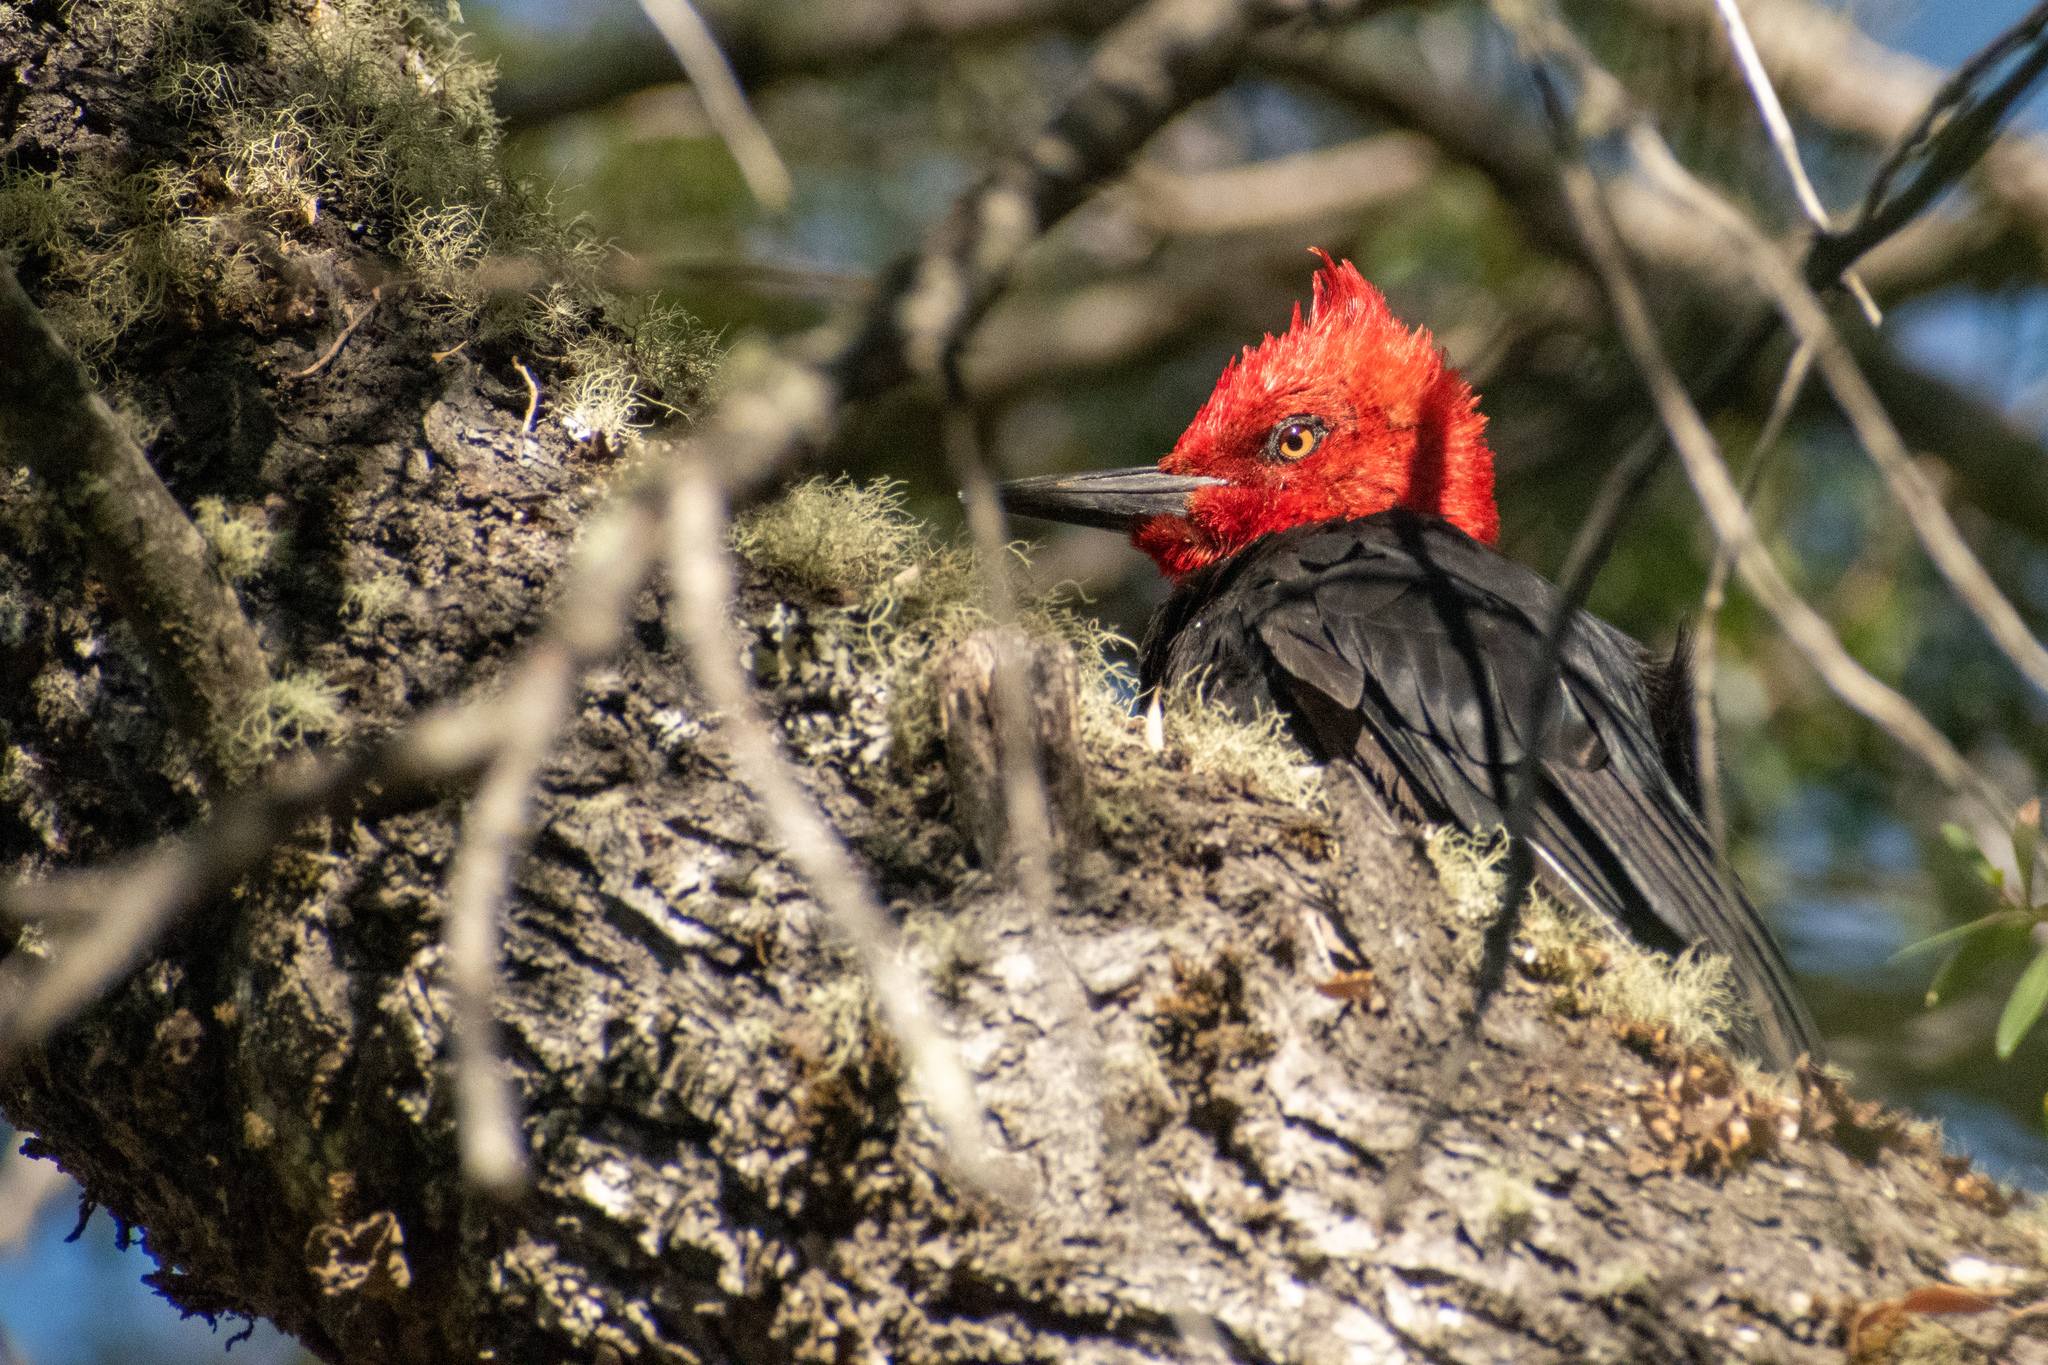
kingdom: Animalia
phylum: Chordata
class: Aves
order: Piciformes
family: Picidae
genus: Campephilus
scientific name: Campephilus magellanicus
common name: Magellanic woodpecker
